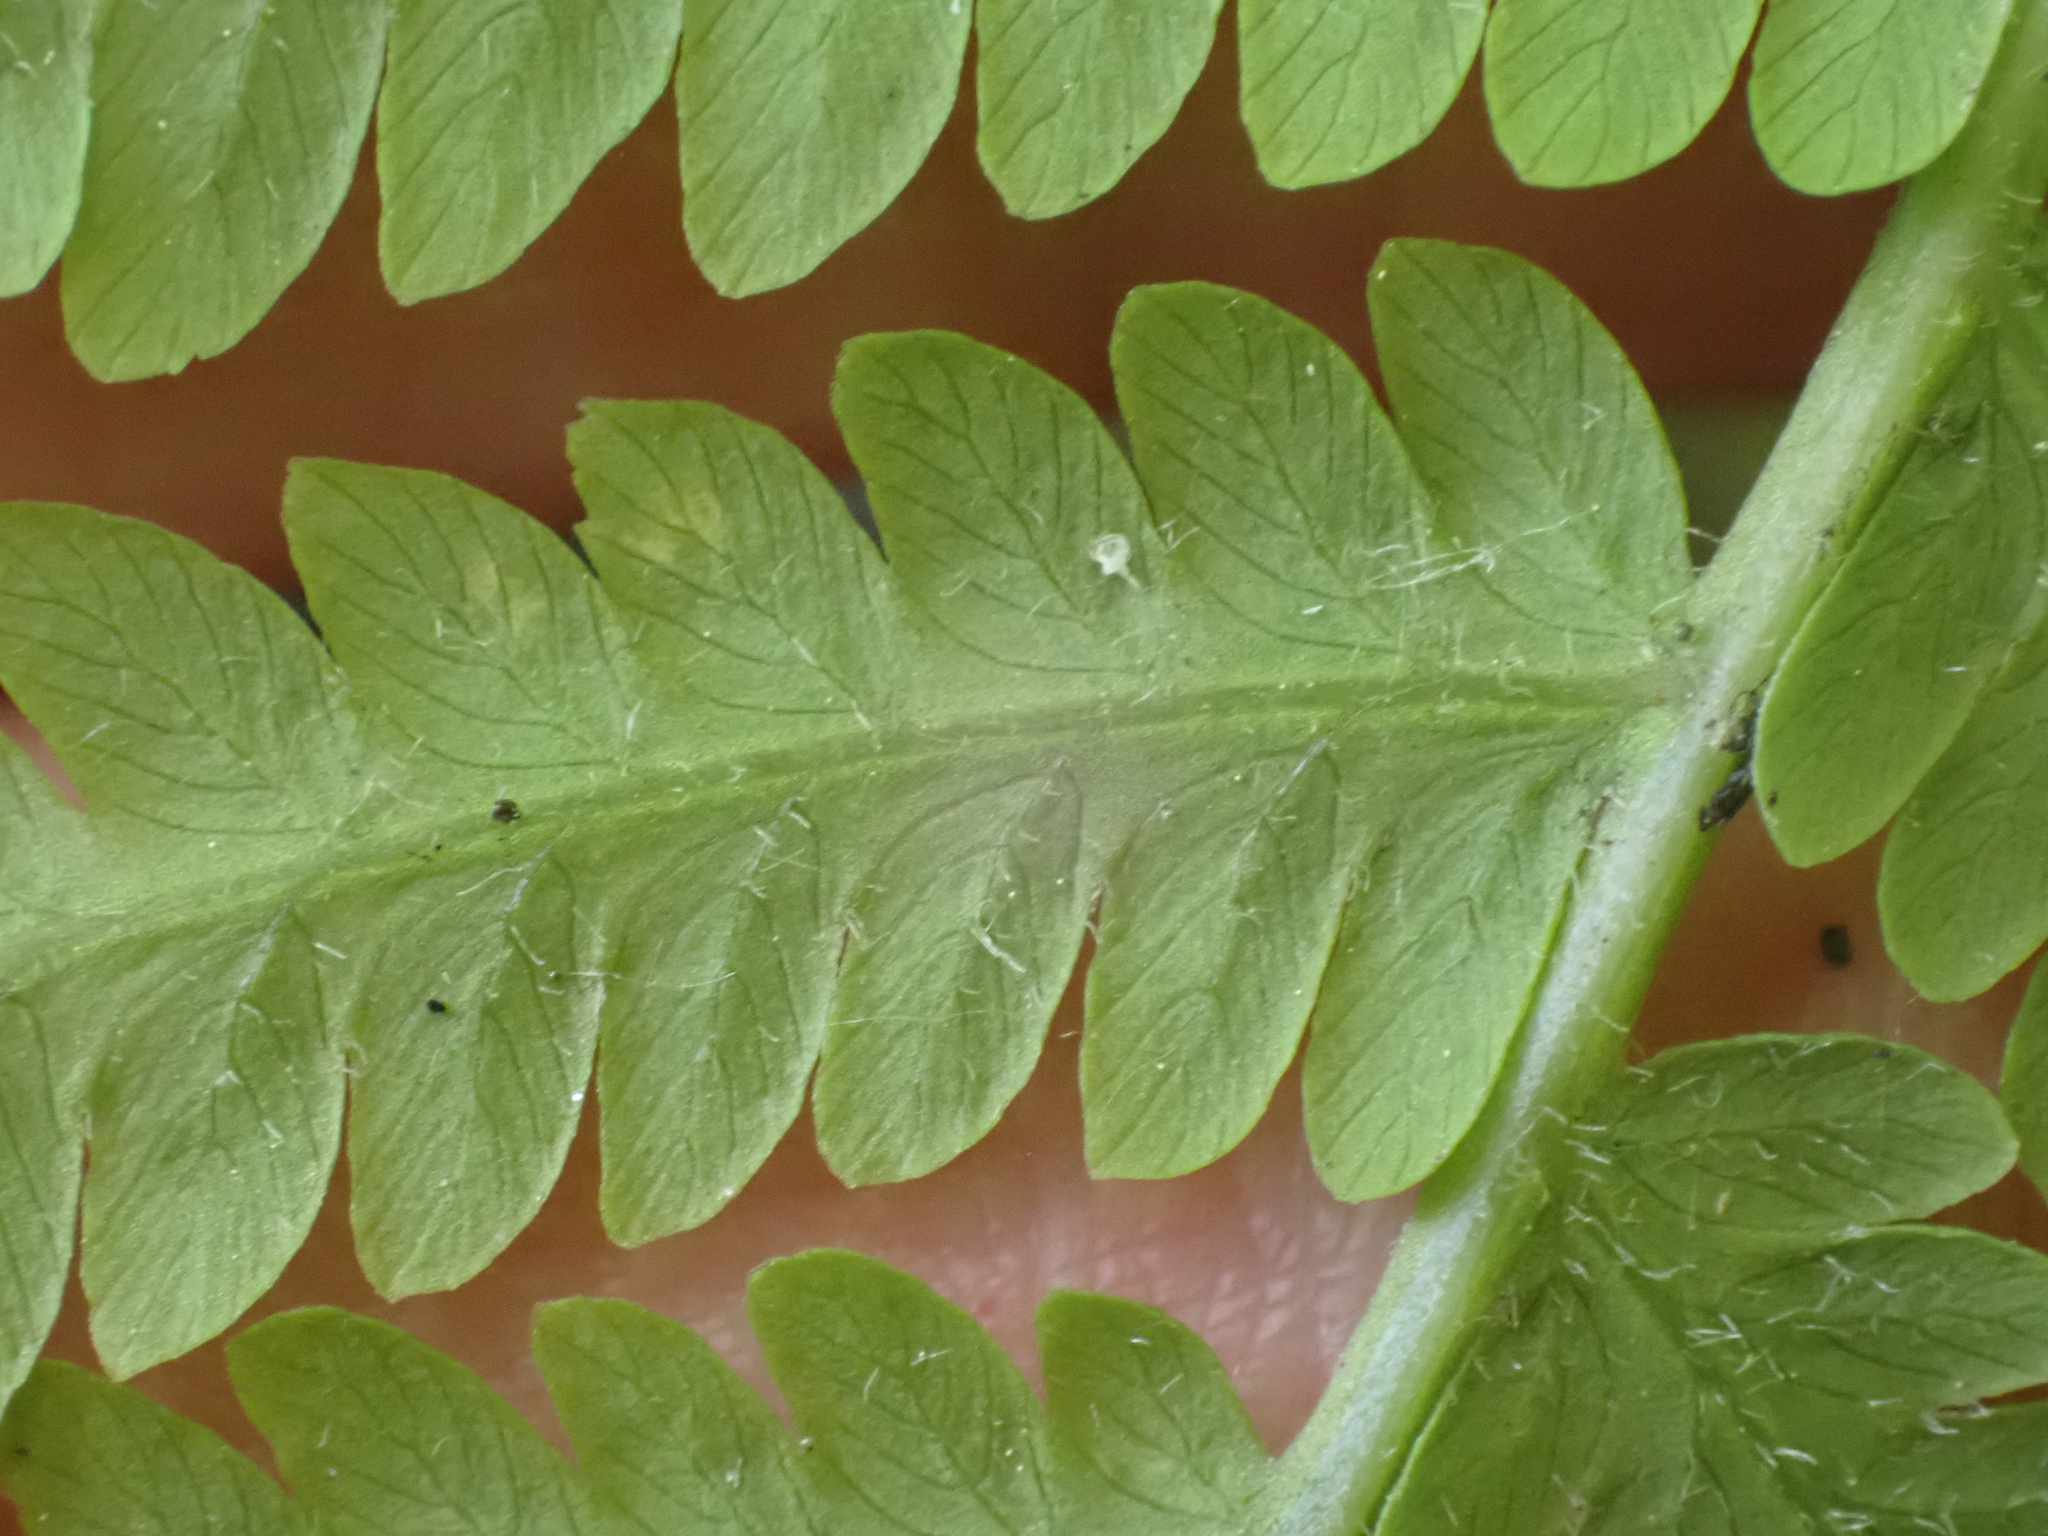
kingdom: Plantae
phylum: Tracheophyta
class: Polypodiopsida
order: Polypodiales
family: Onocleaceae
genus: Matteuccia
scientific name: Matteuccia struthiopteris
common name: Ostrich fern
